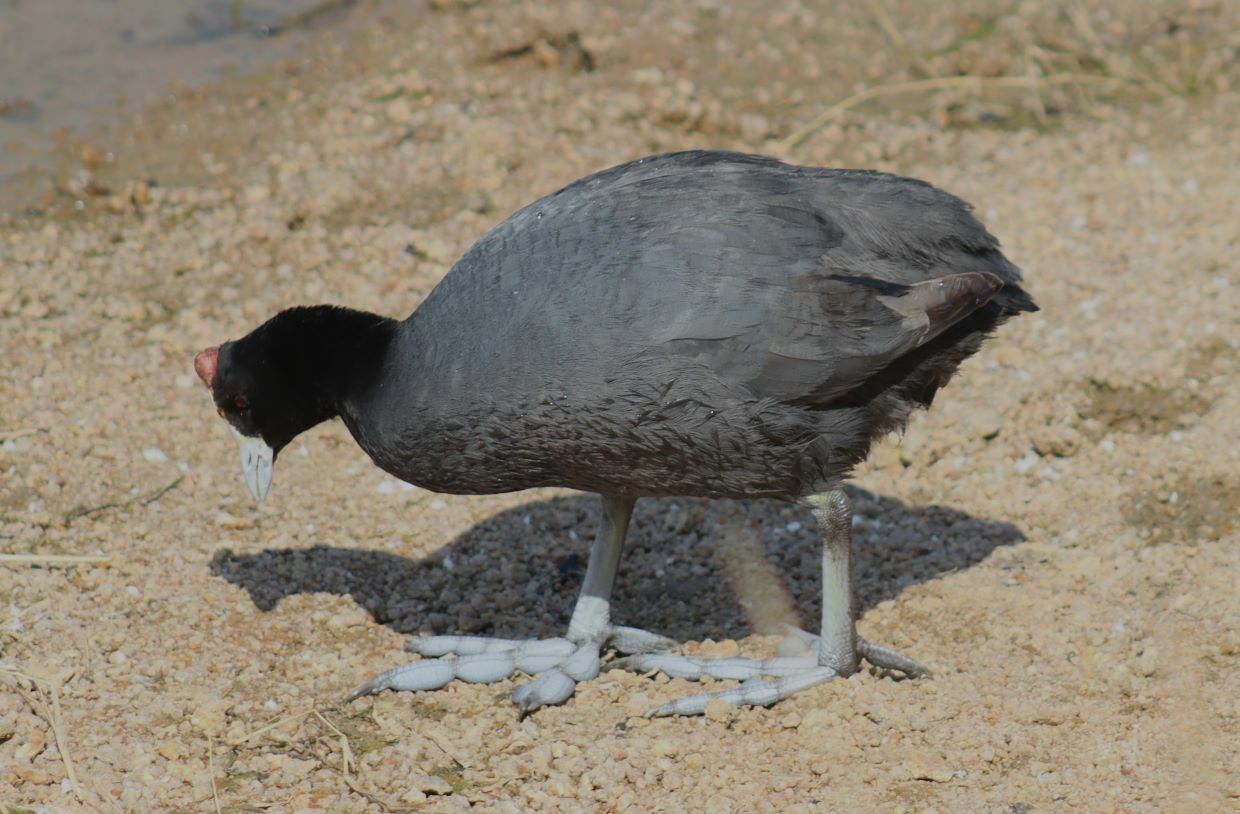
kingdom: Animalia
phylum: Chordata
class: Aves
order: Gruiformes
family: Rallidae
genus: Fulica
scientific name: Fulica cristata
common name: Red-knobbed coot
